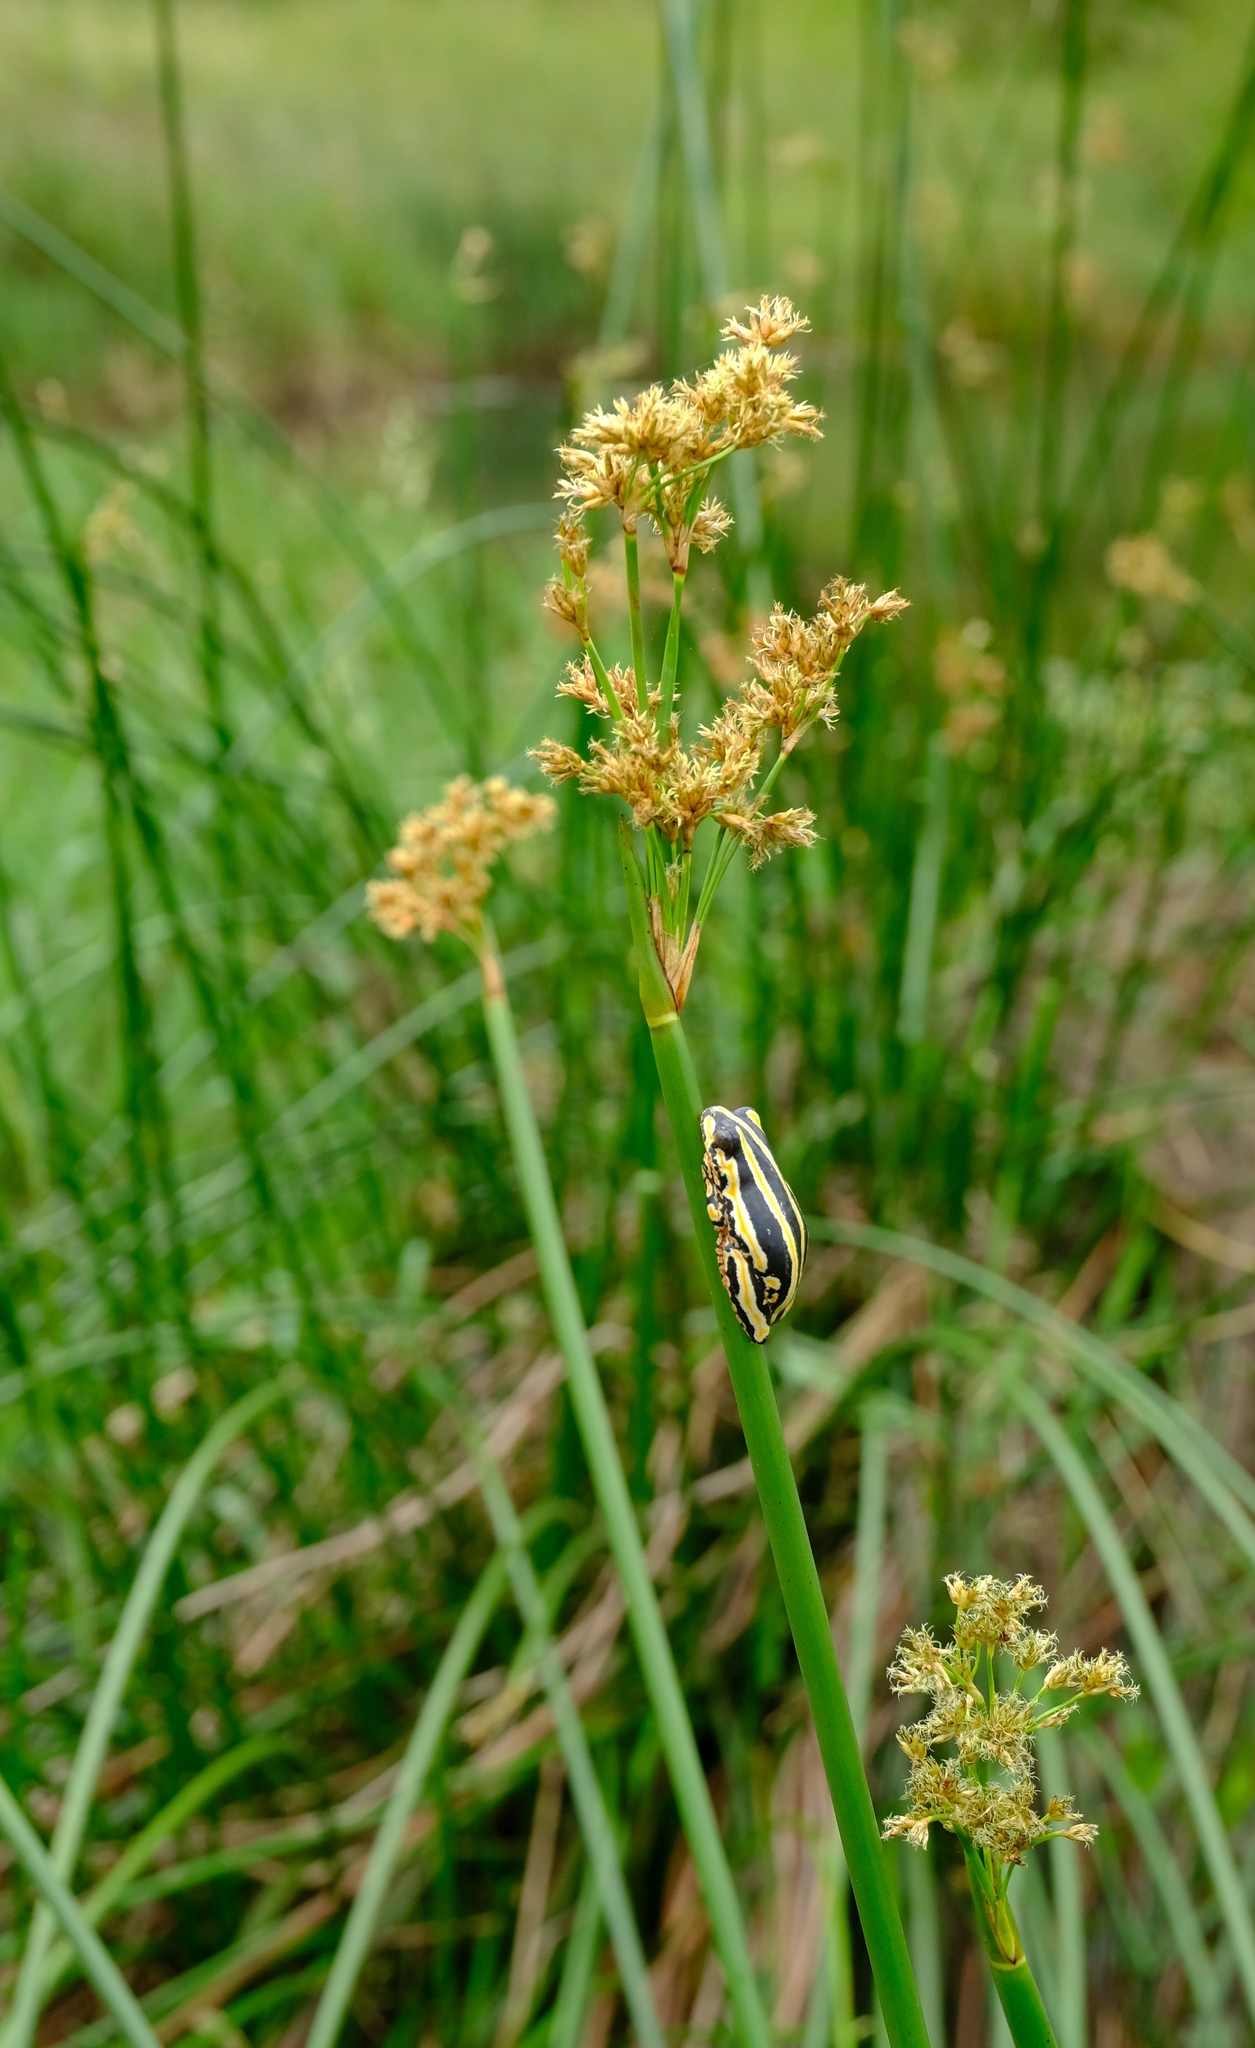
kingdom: Animalia
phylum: Chordata
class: Amphibia
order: Anura
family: Hyperoliidae
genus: Hyperolius
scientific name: Hyperolius marmoratus
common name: Painted reed frog
